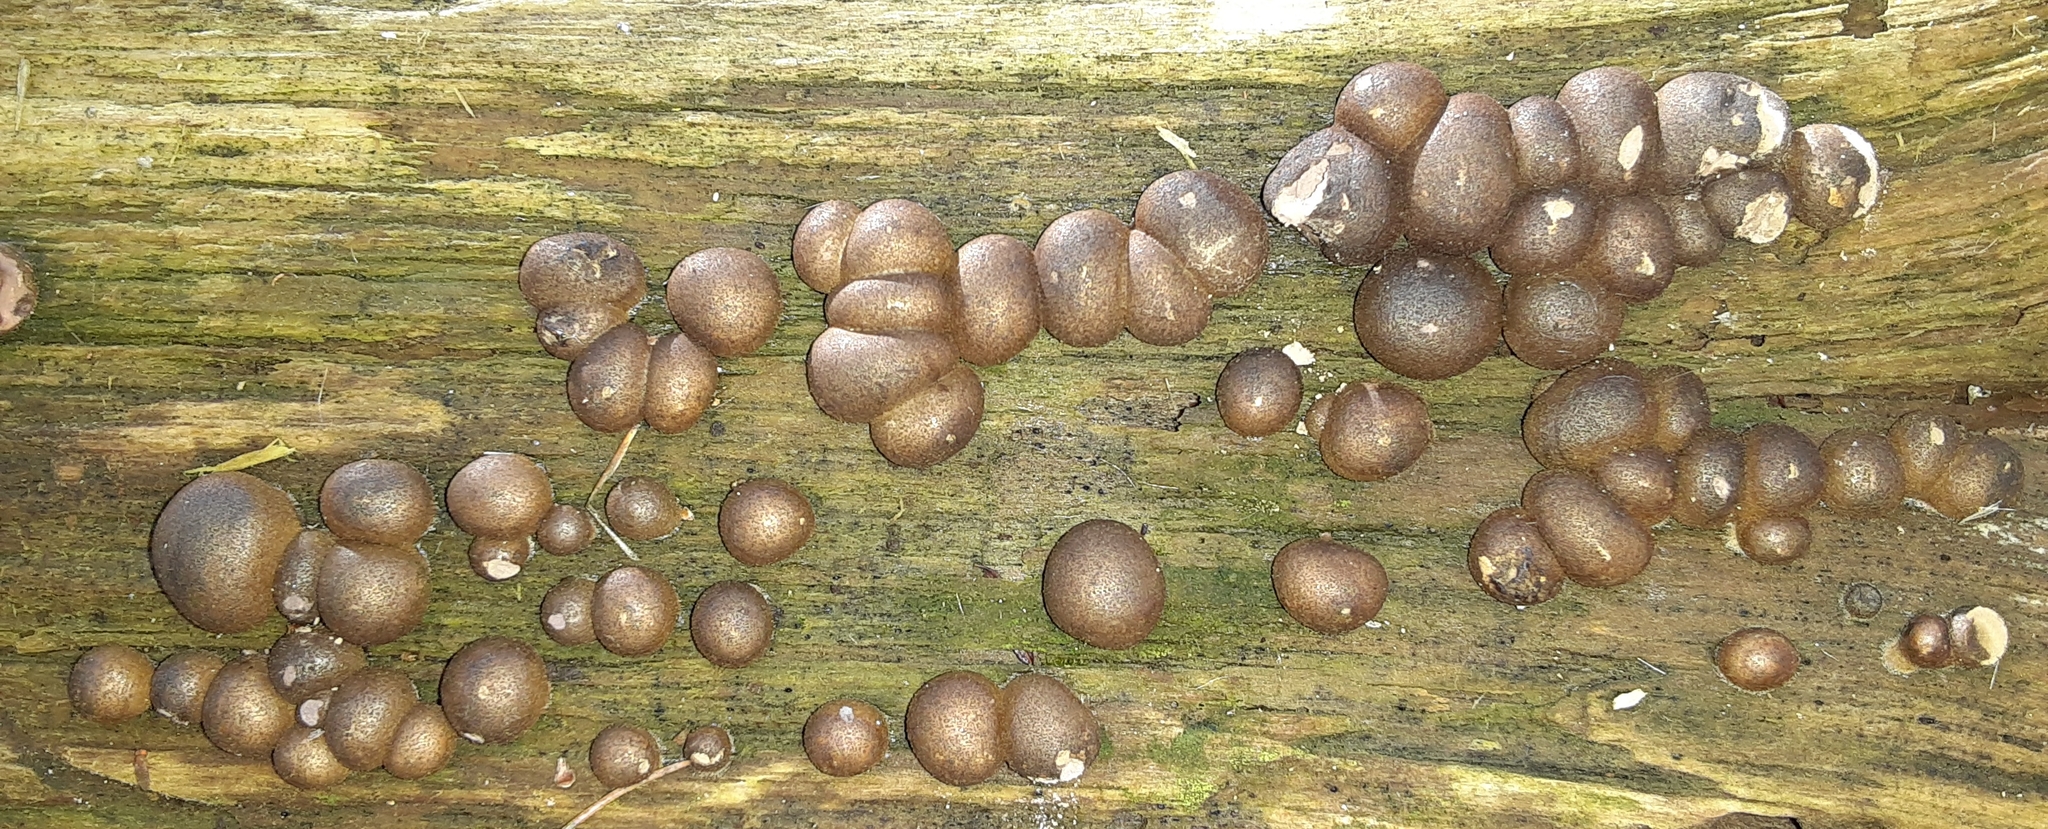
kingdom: Protozoa
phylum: Mycetozoa
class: Myxomycetes
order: Cribrariales
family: Tubiferaceae
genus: Lycogala
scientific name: Lycogala epidendrum
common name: Wolf's milk
